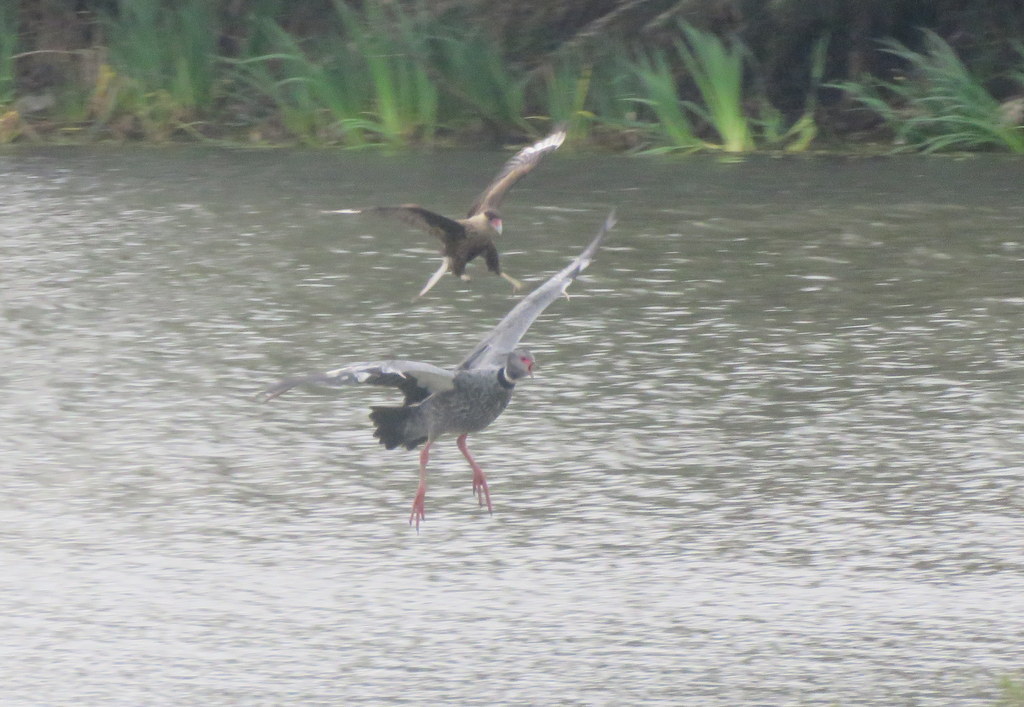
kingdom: Animalia
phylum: Chordata
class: Aves
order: Anseriformes
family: Anhimidae
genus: Chauna
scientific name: Chauna torquata
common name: Southern screamer
